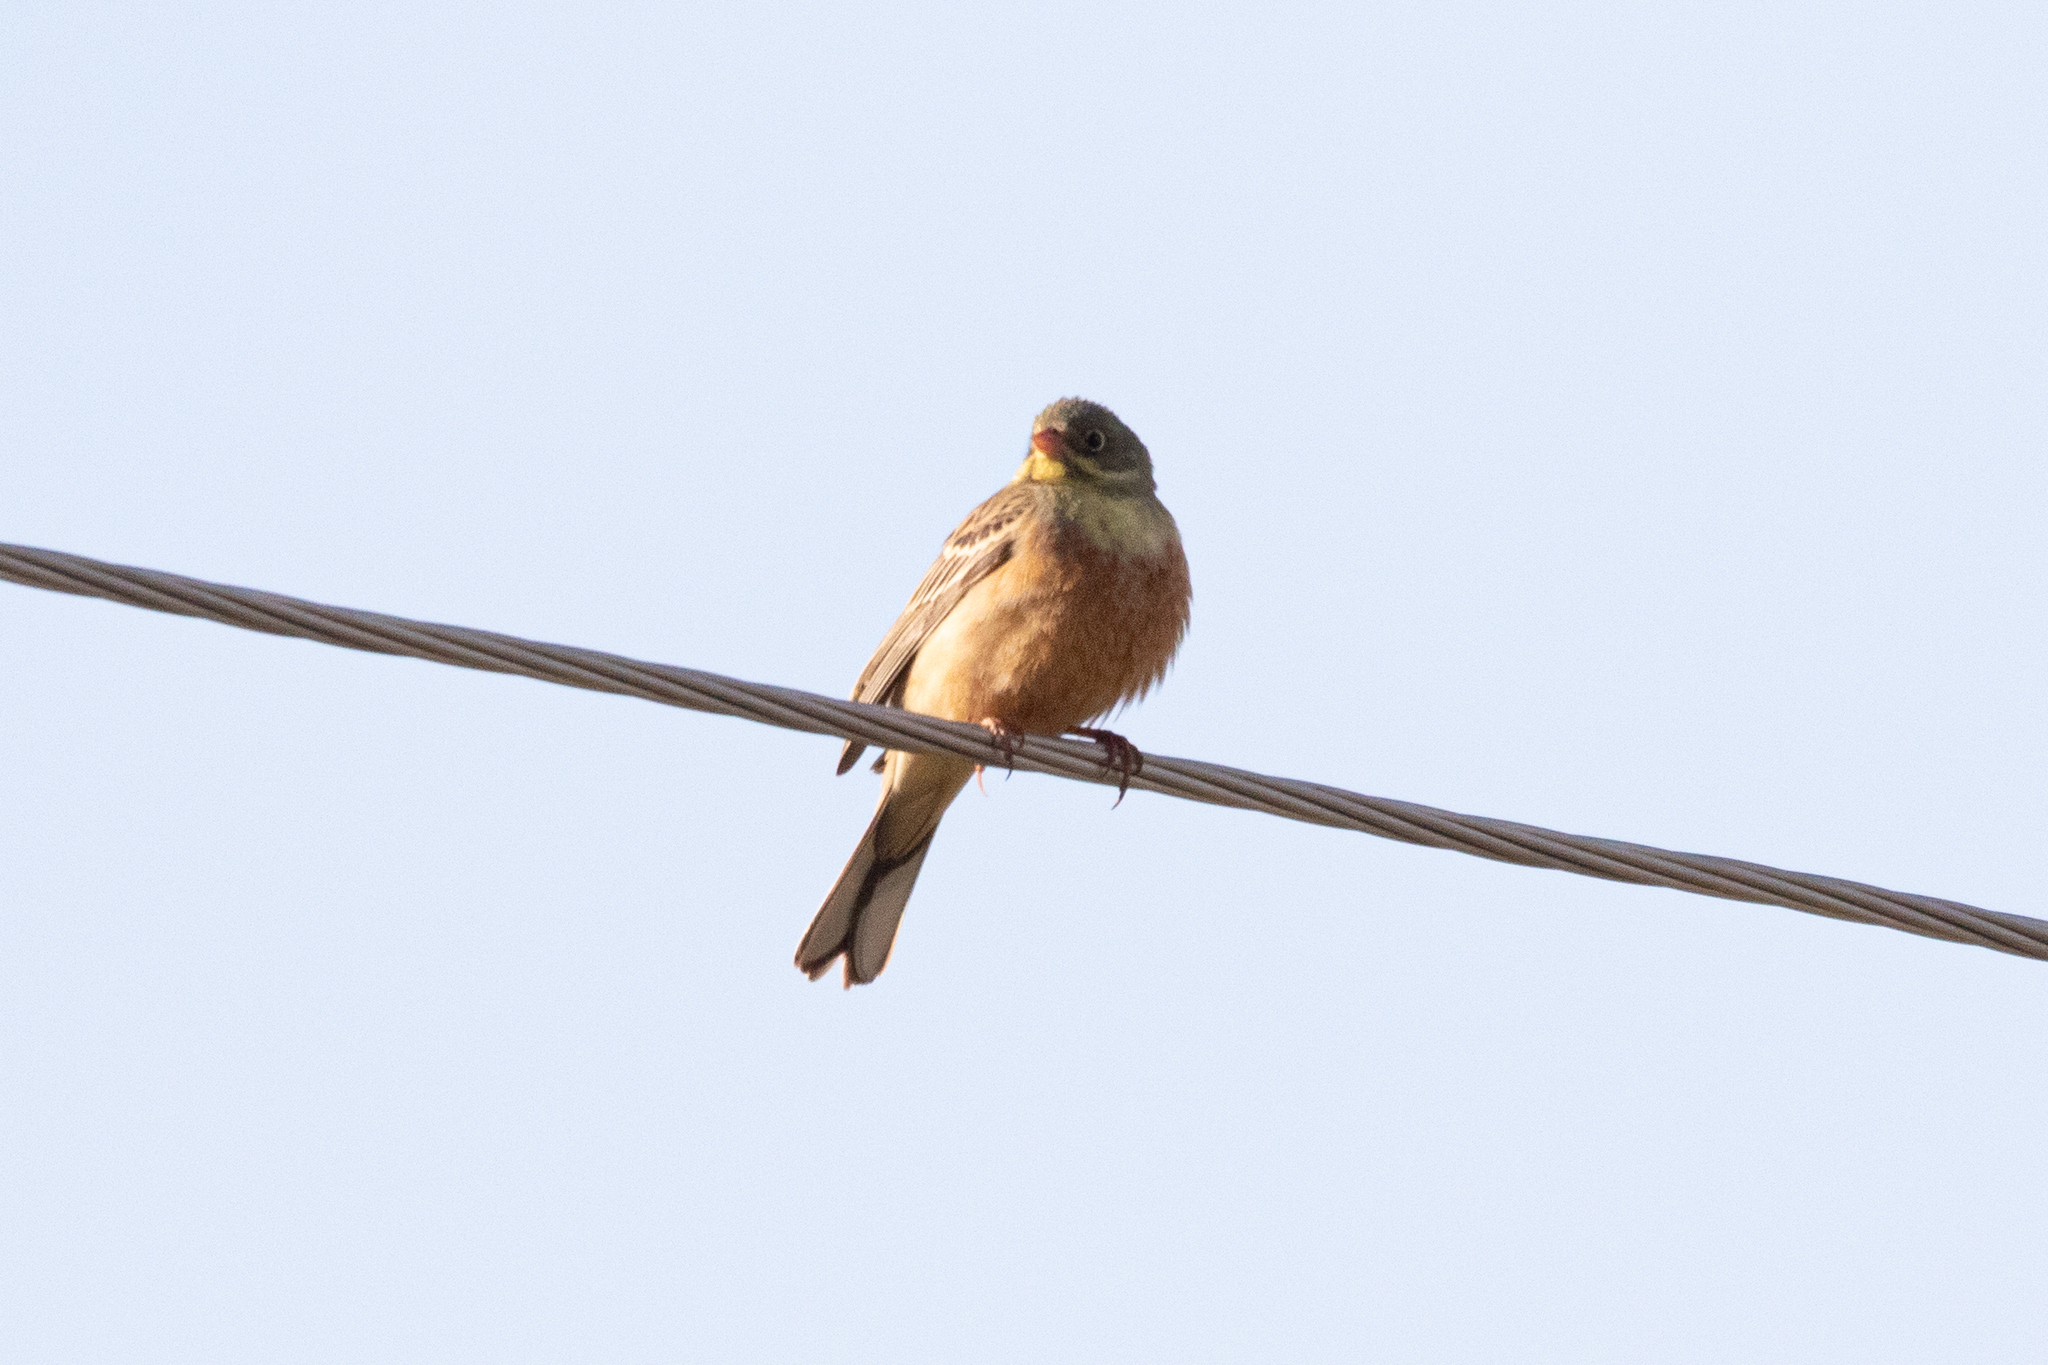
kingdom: Animalia
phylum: Chordata
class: Aves
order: Passeriformes
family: Emberizidae
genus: Emberiza
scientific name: Emberiza hortulana
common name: Ortolan bunting
